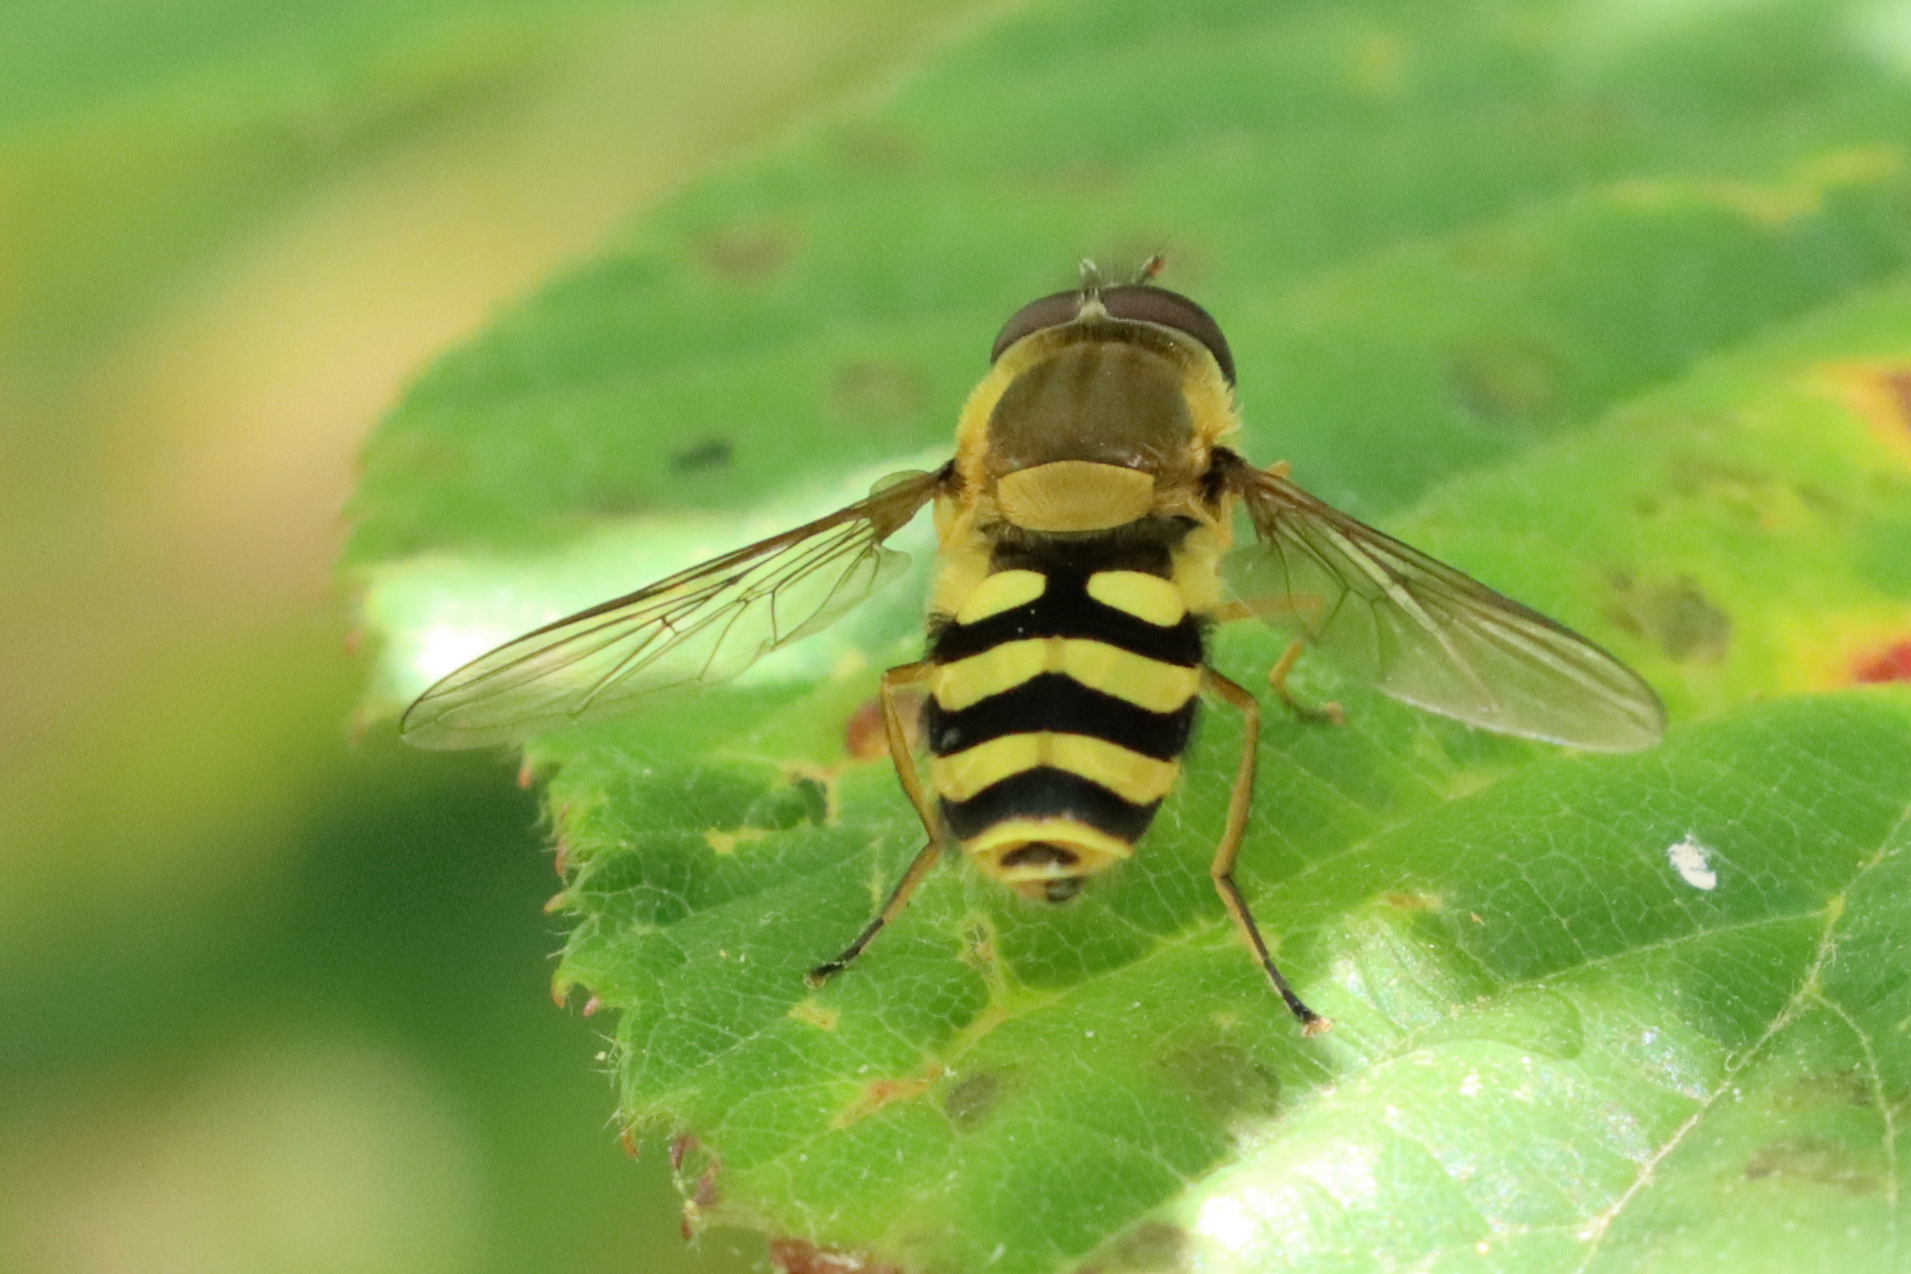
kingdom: Animalia
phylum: Arthropoda
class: Insecta
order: Diptera
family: Syrphidae
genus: Syrphus
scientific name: Syrphus
